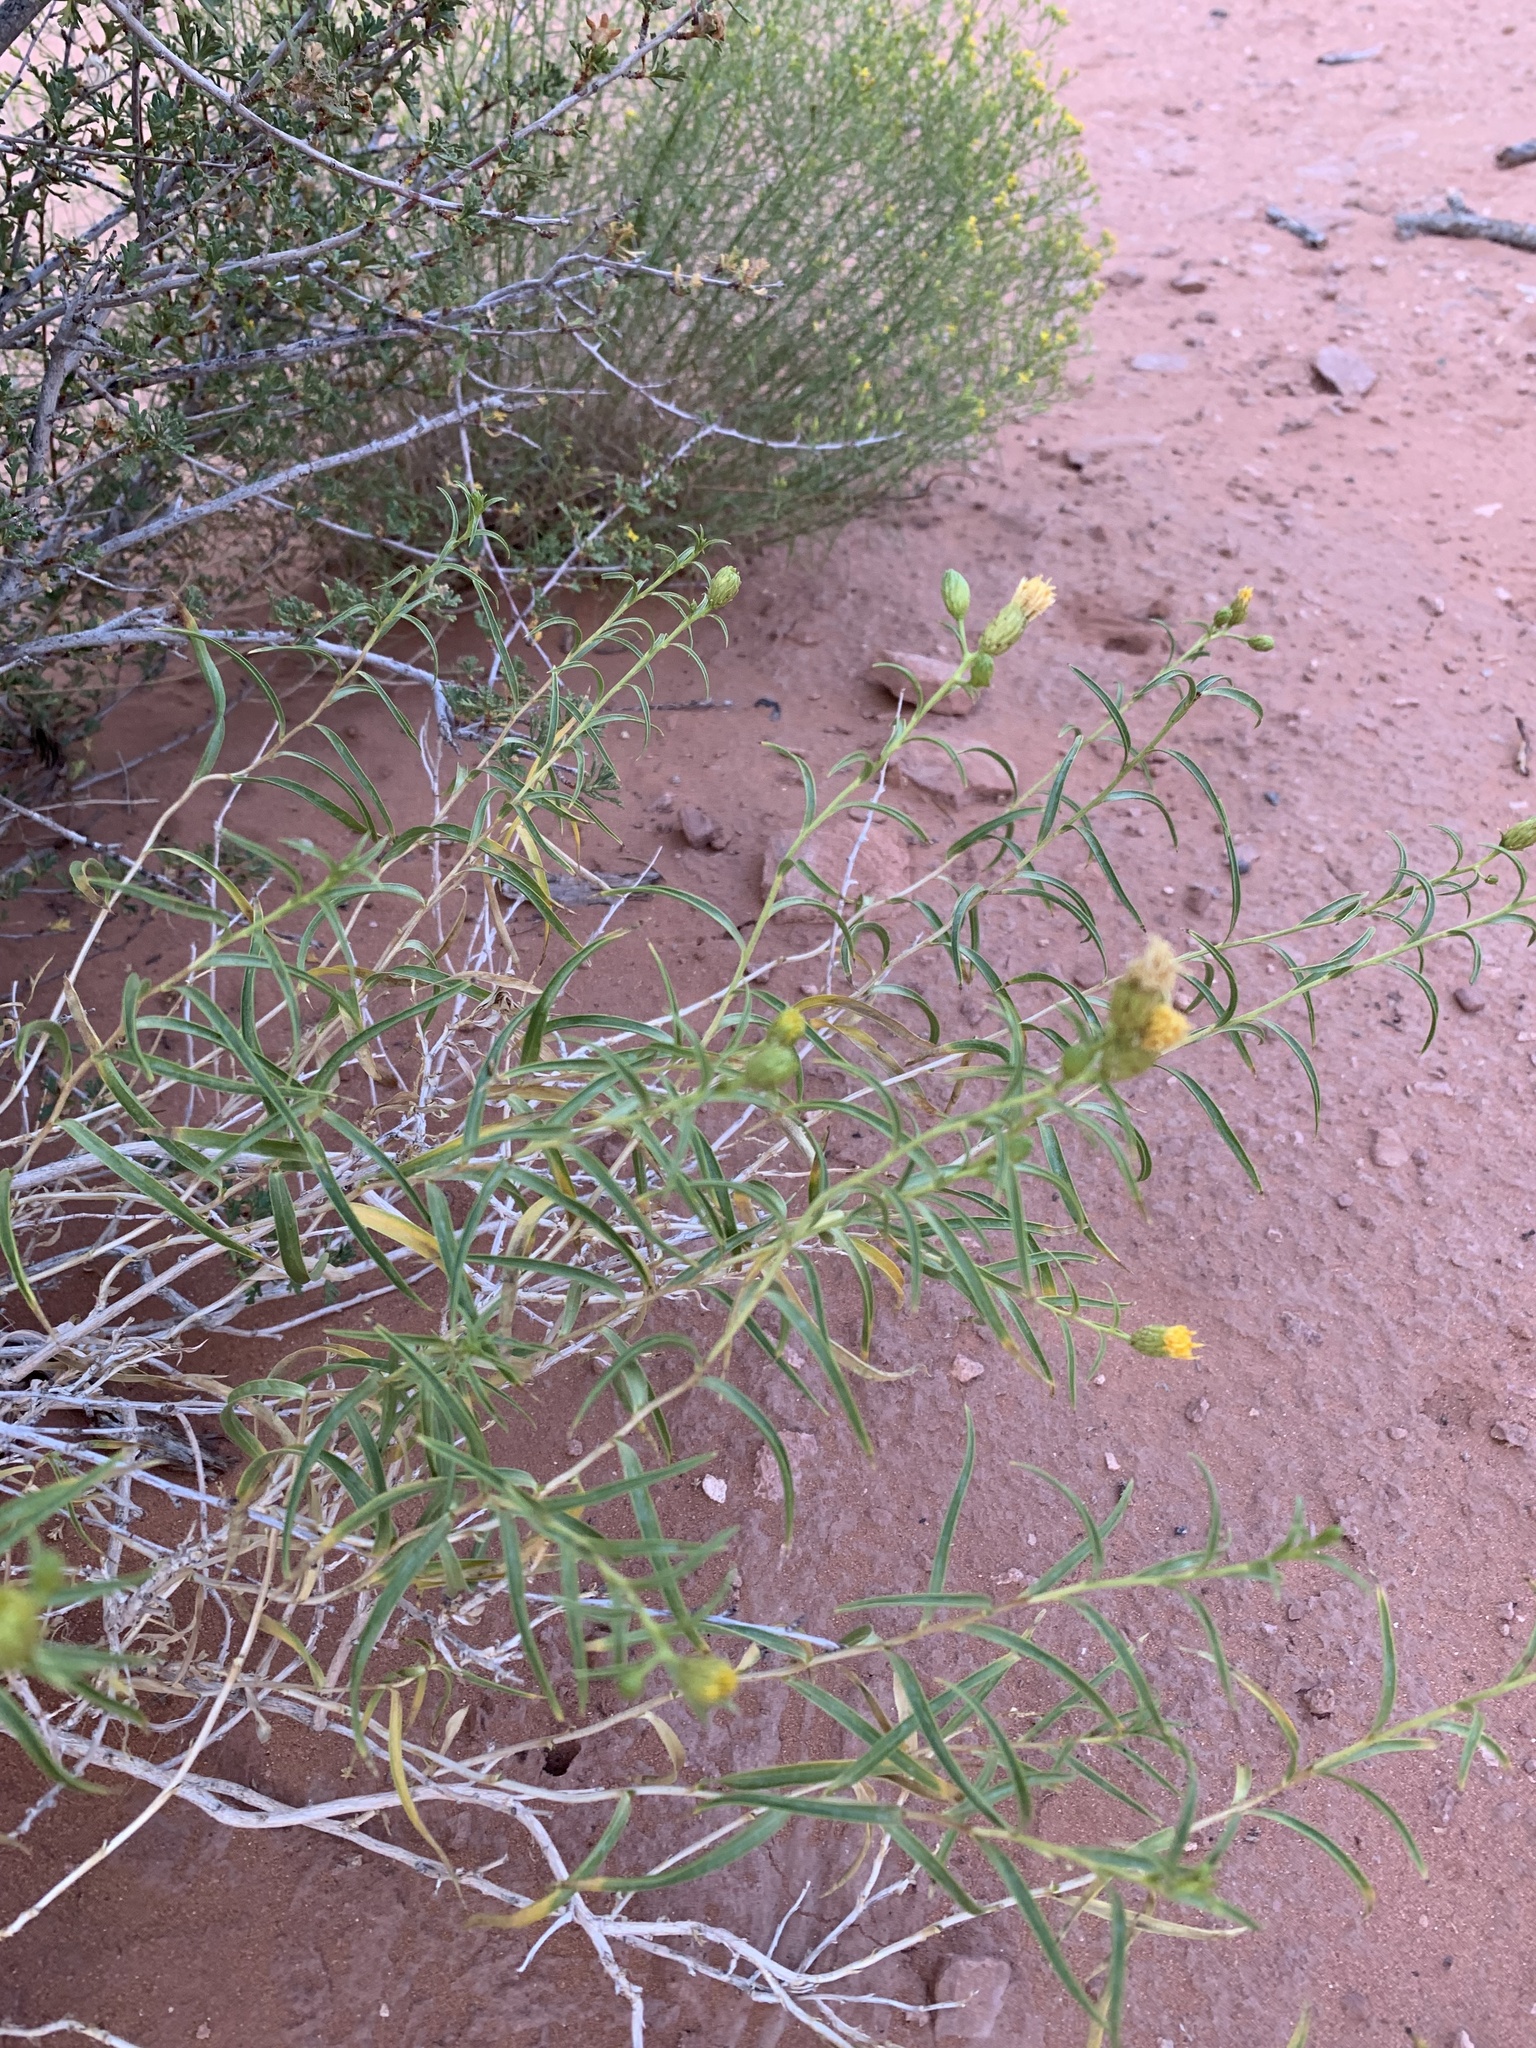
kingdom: Plantae
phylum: Tracheophyta
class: Magnoliopsida
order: Asterales
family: Asteraceae
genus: Chrysothamnus
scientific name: Chrysothamnus stylosus
